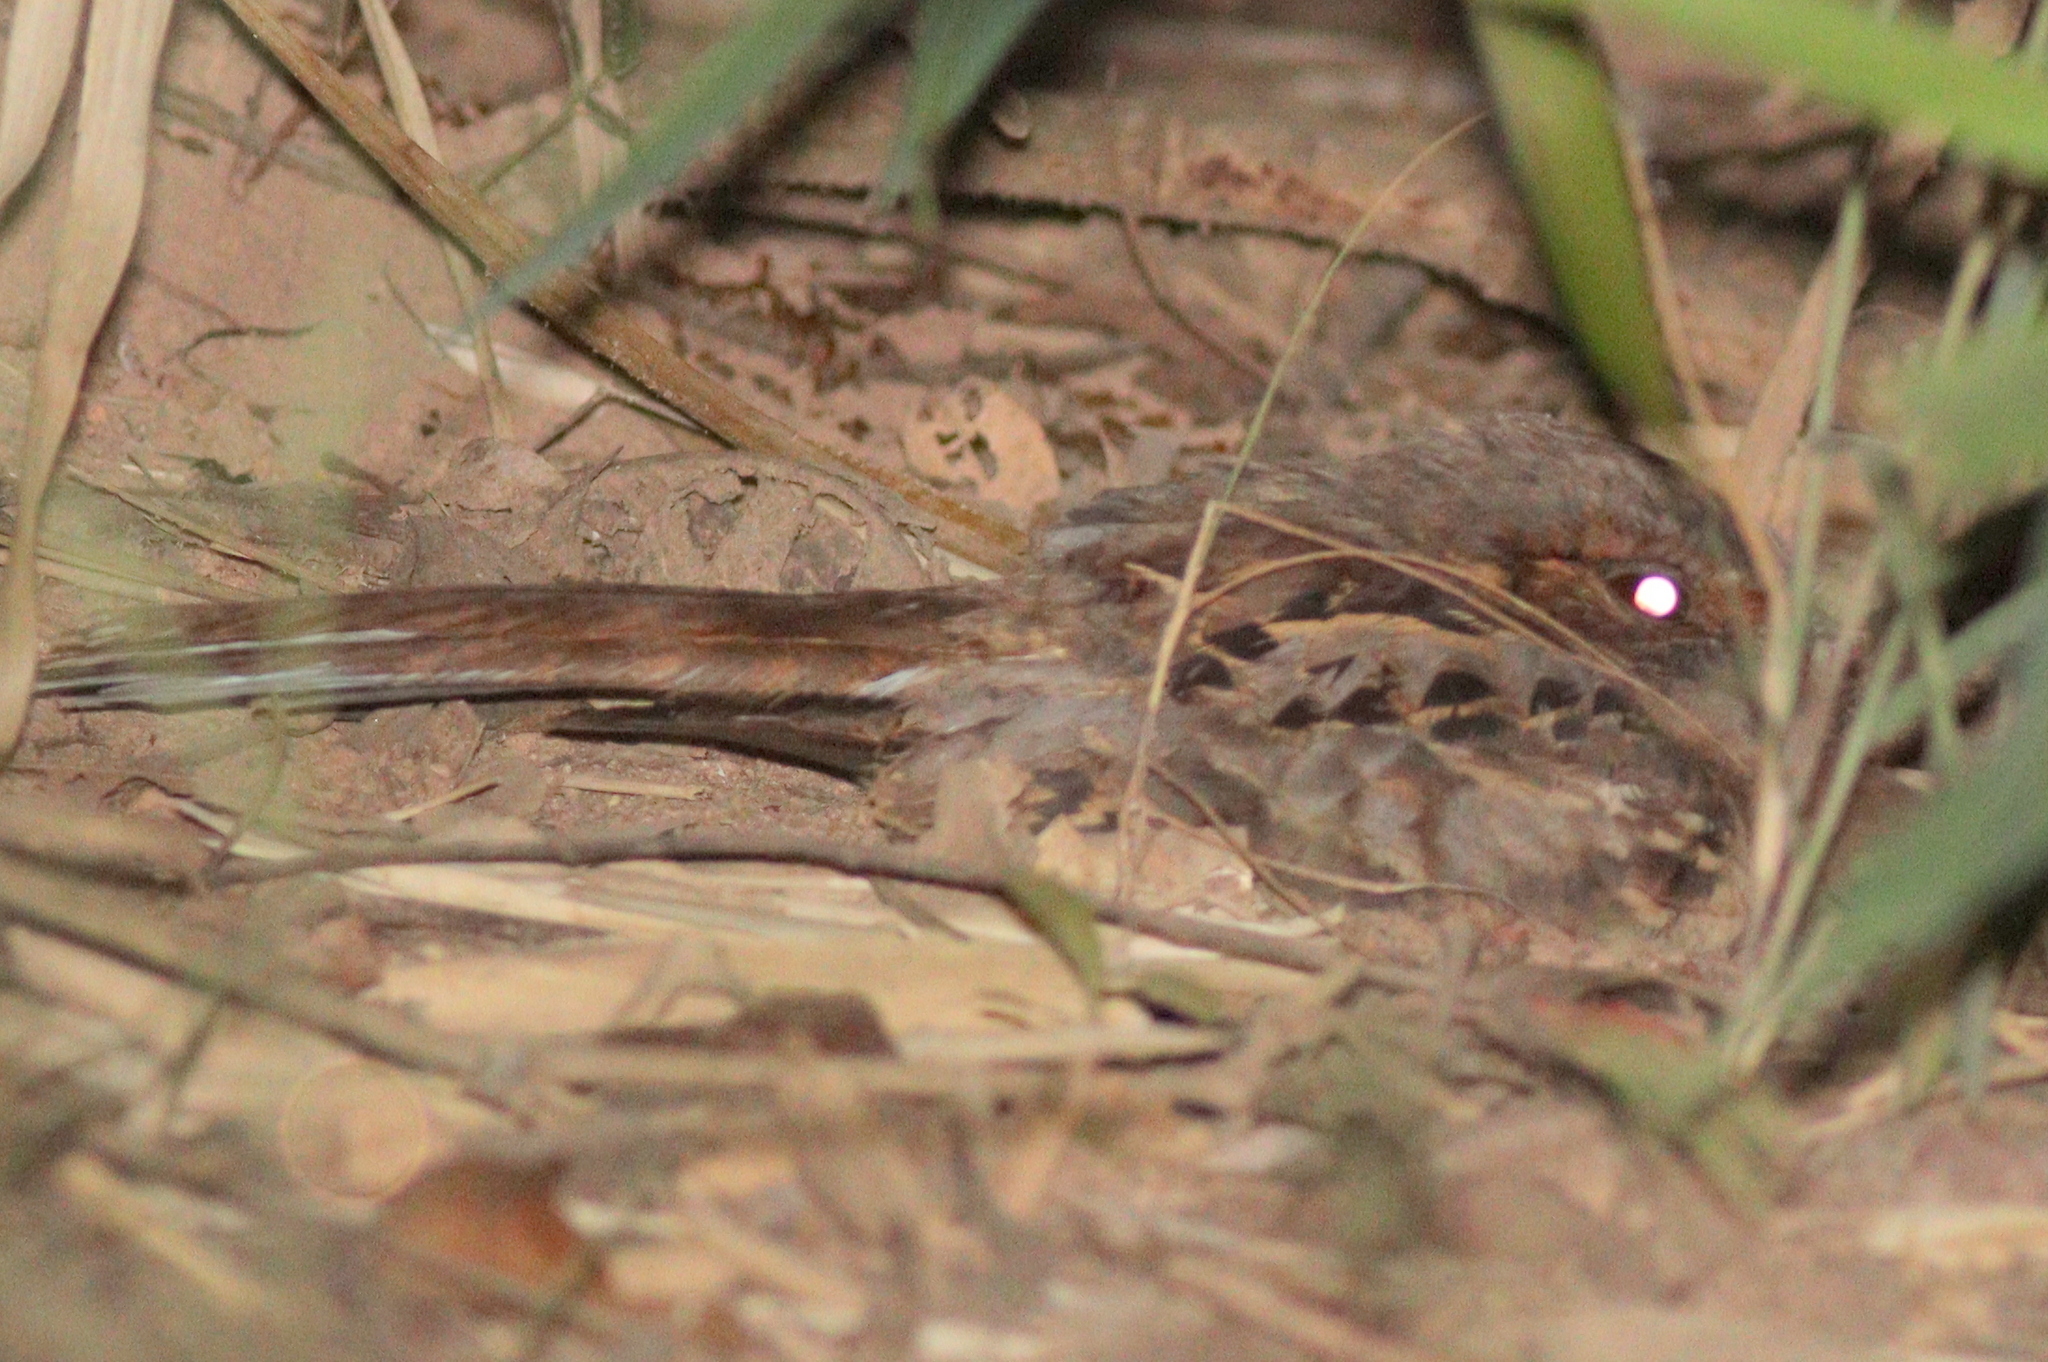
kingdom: Animalia
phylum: Chordata
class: Aves
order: Caprimulgiformes
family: Caprimulgidae
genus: Nyctidromus
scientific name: Nyctidromus albicollis
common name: Pauraque
